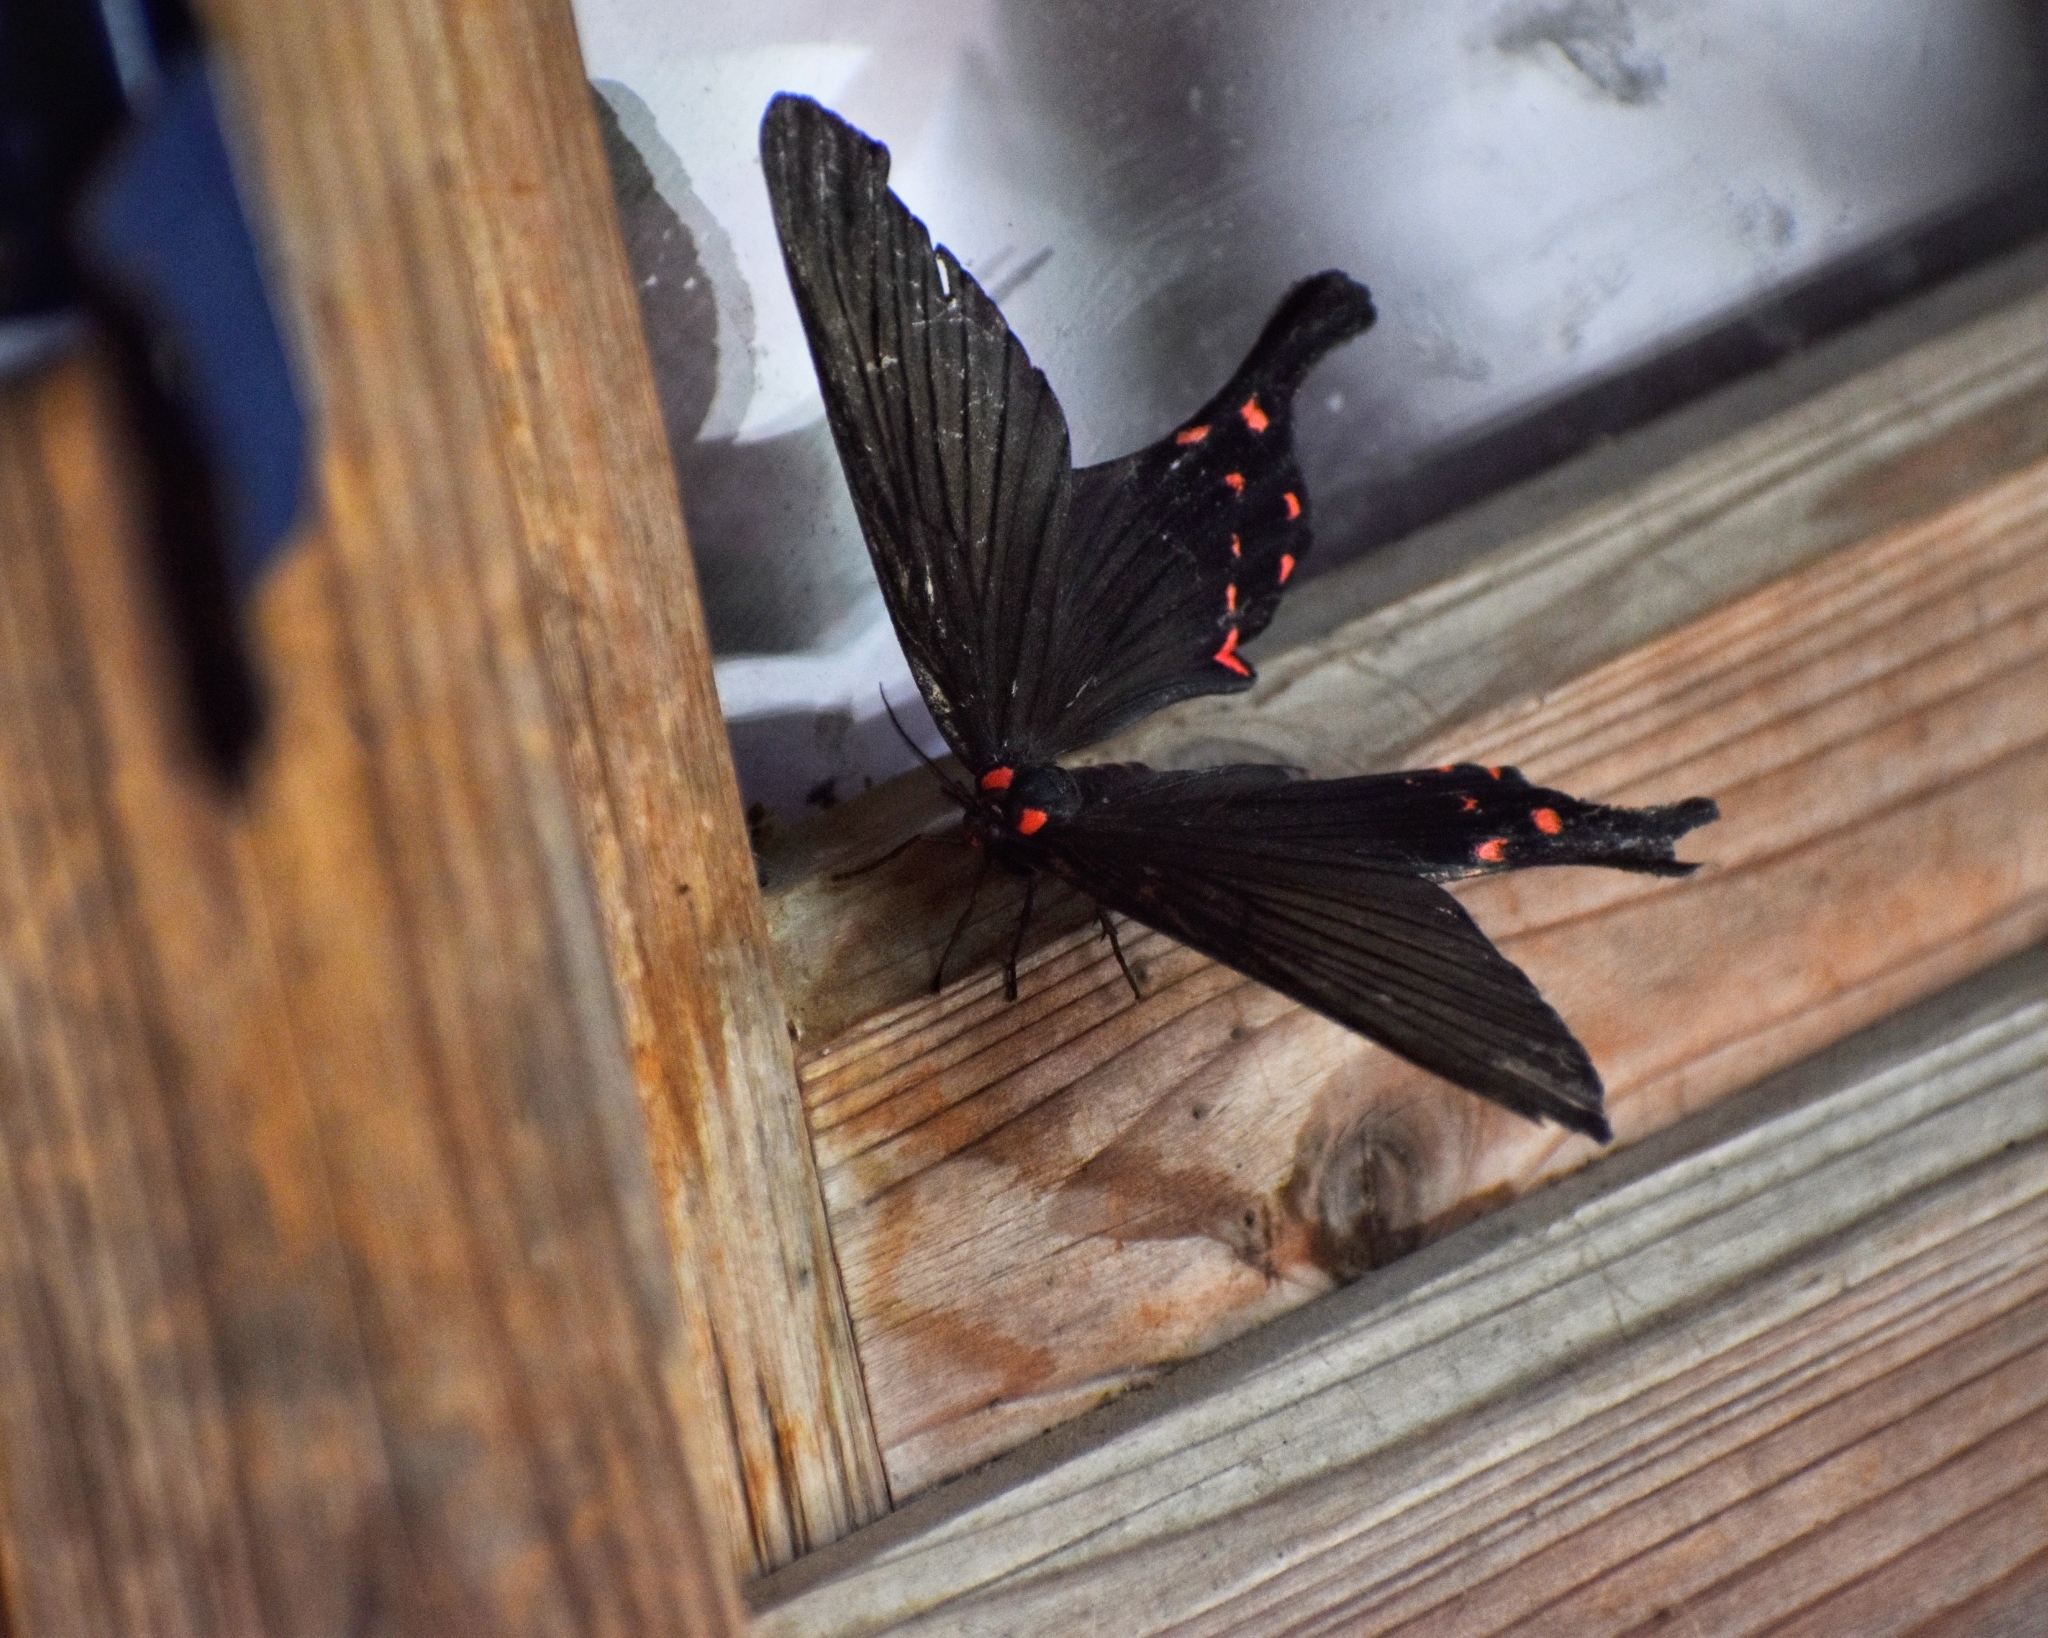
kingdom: Animalia
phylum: Arthropoda
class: Insecta
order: Lepidoptera
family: Epicopeiidae
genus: Epicopeia
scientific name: Epicopeia mencia
